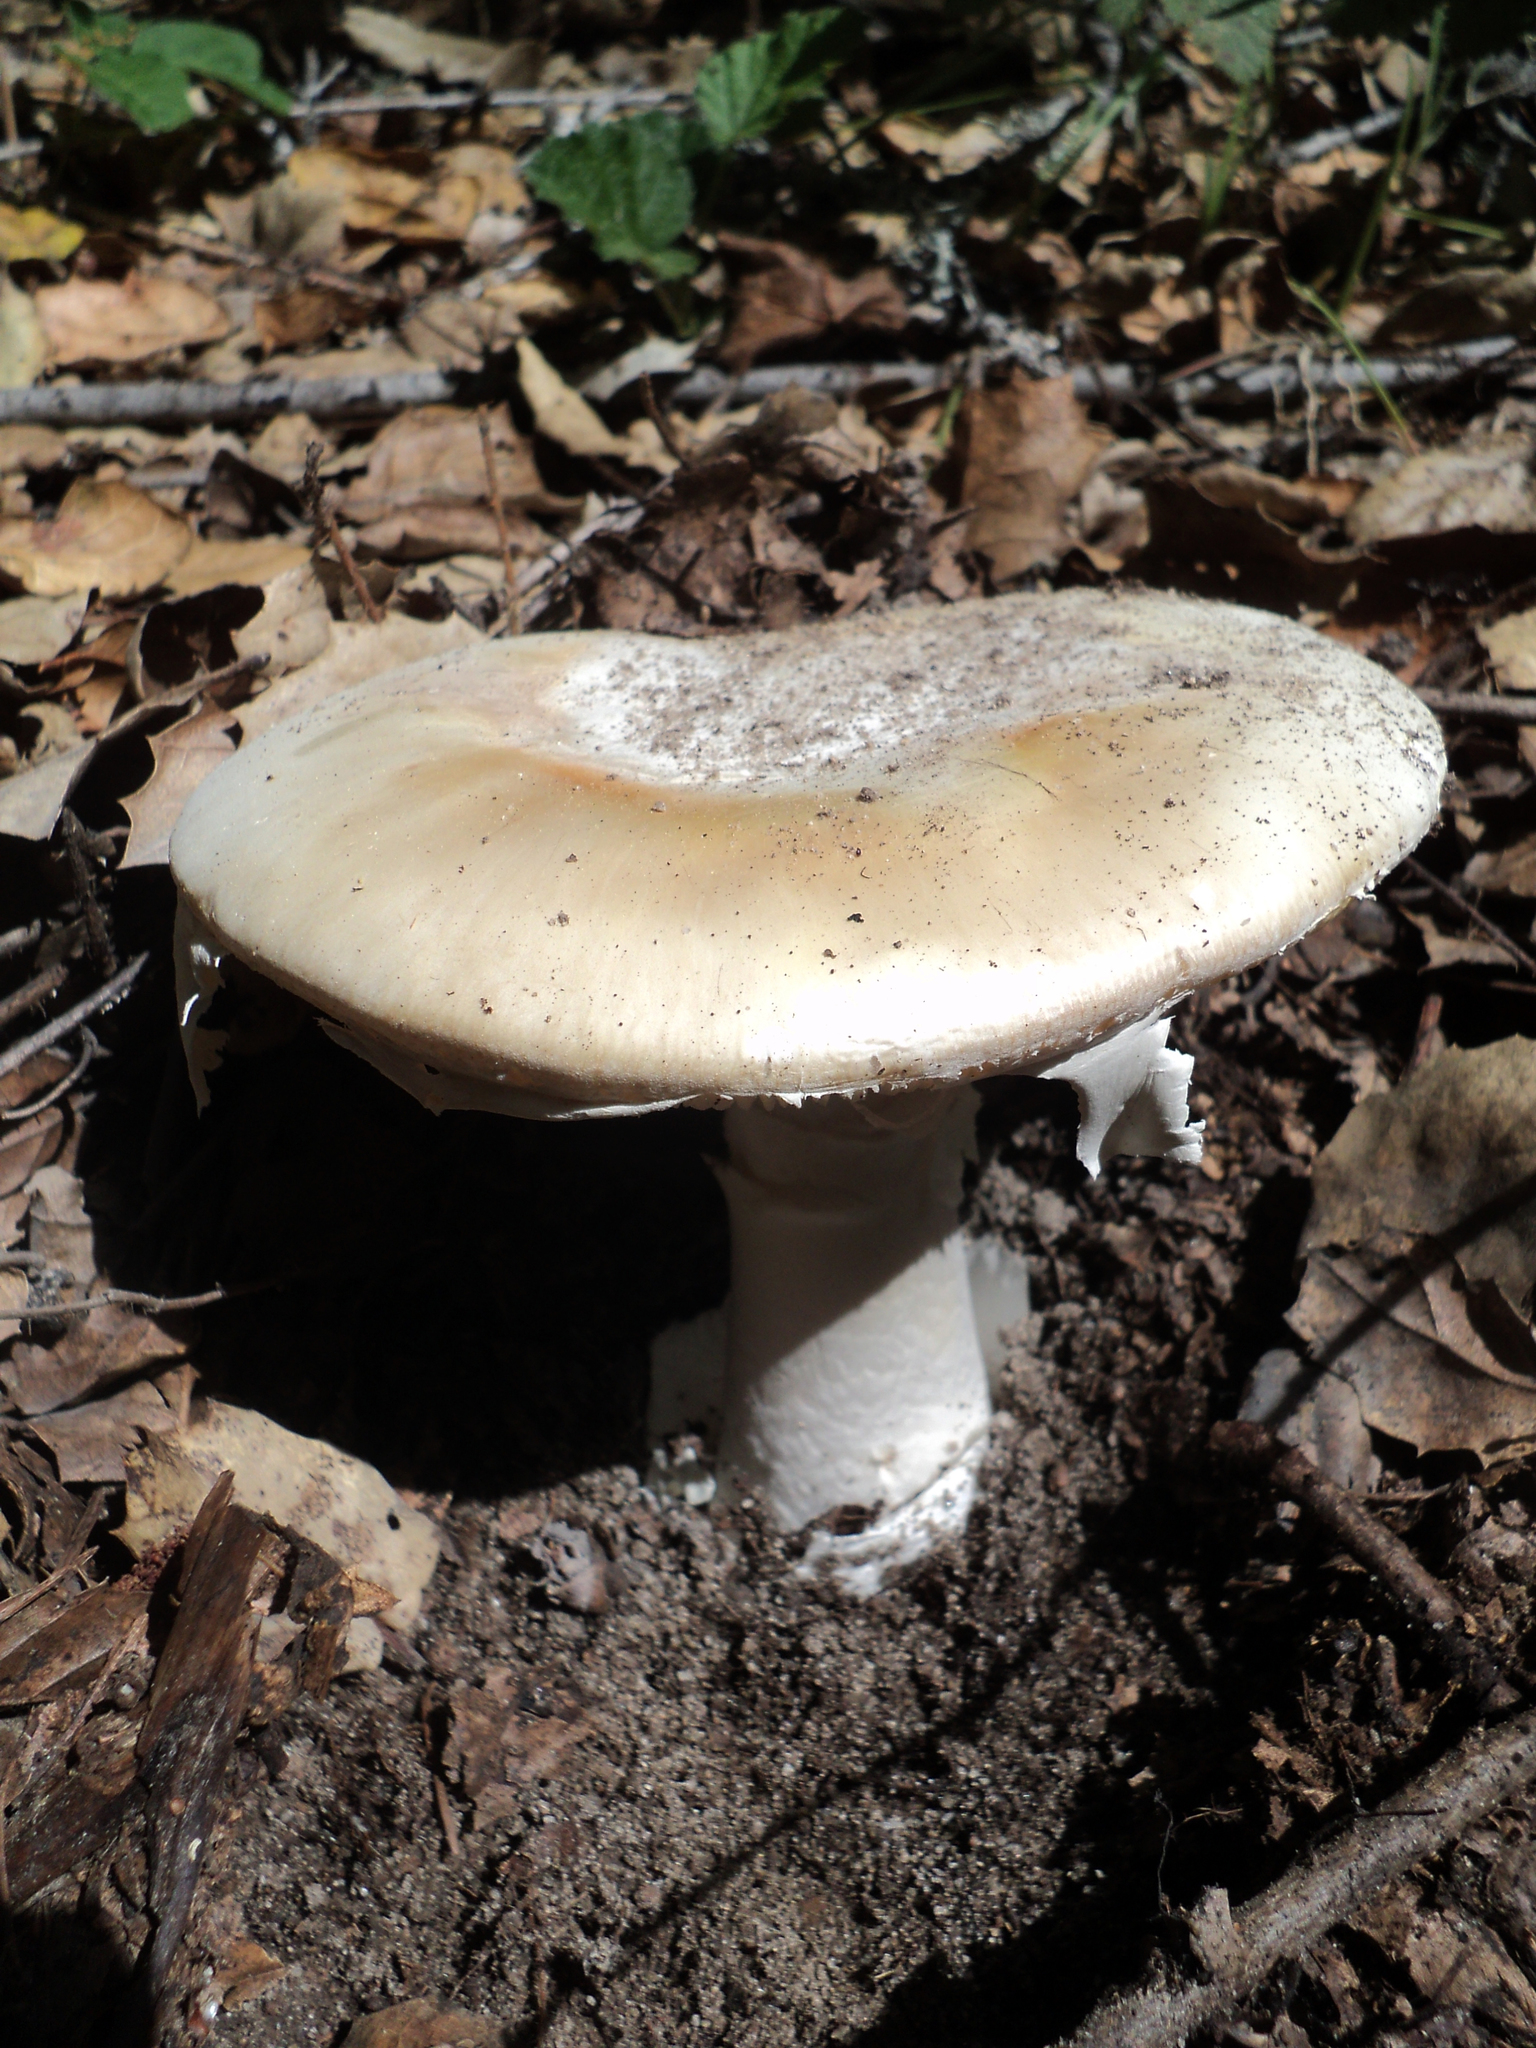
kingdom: Fungi
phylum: Basidiomycota
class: Agaricomycetes
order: Agaricales
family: Amanitaceae
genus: Amanita
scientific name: Amanita ocreata
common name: Western destroying angel
